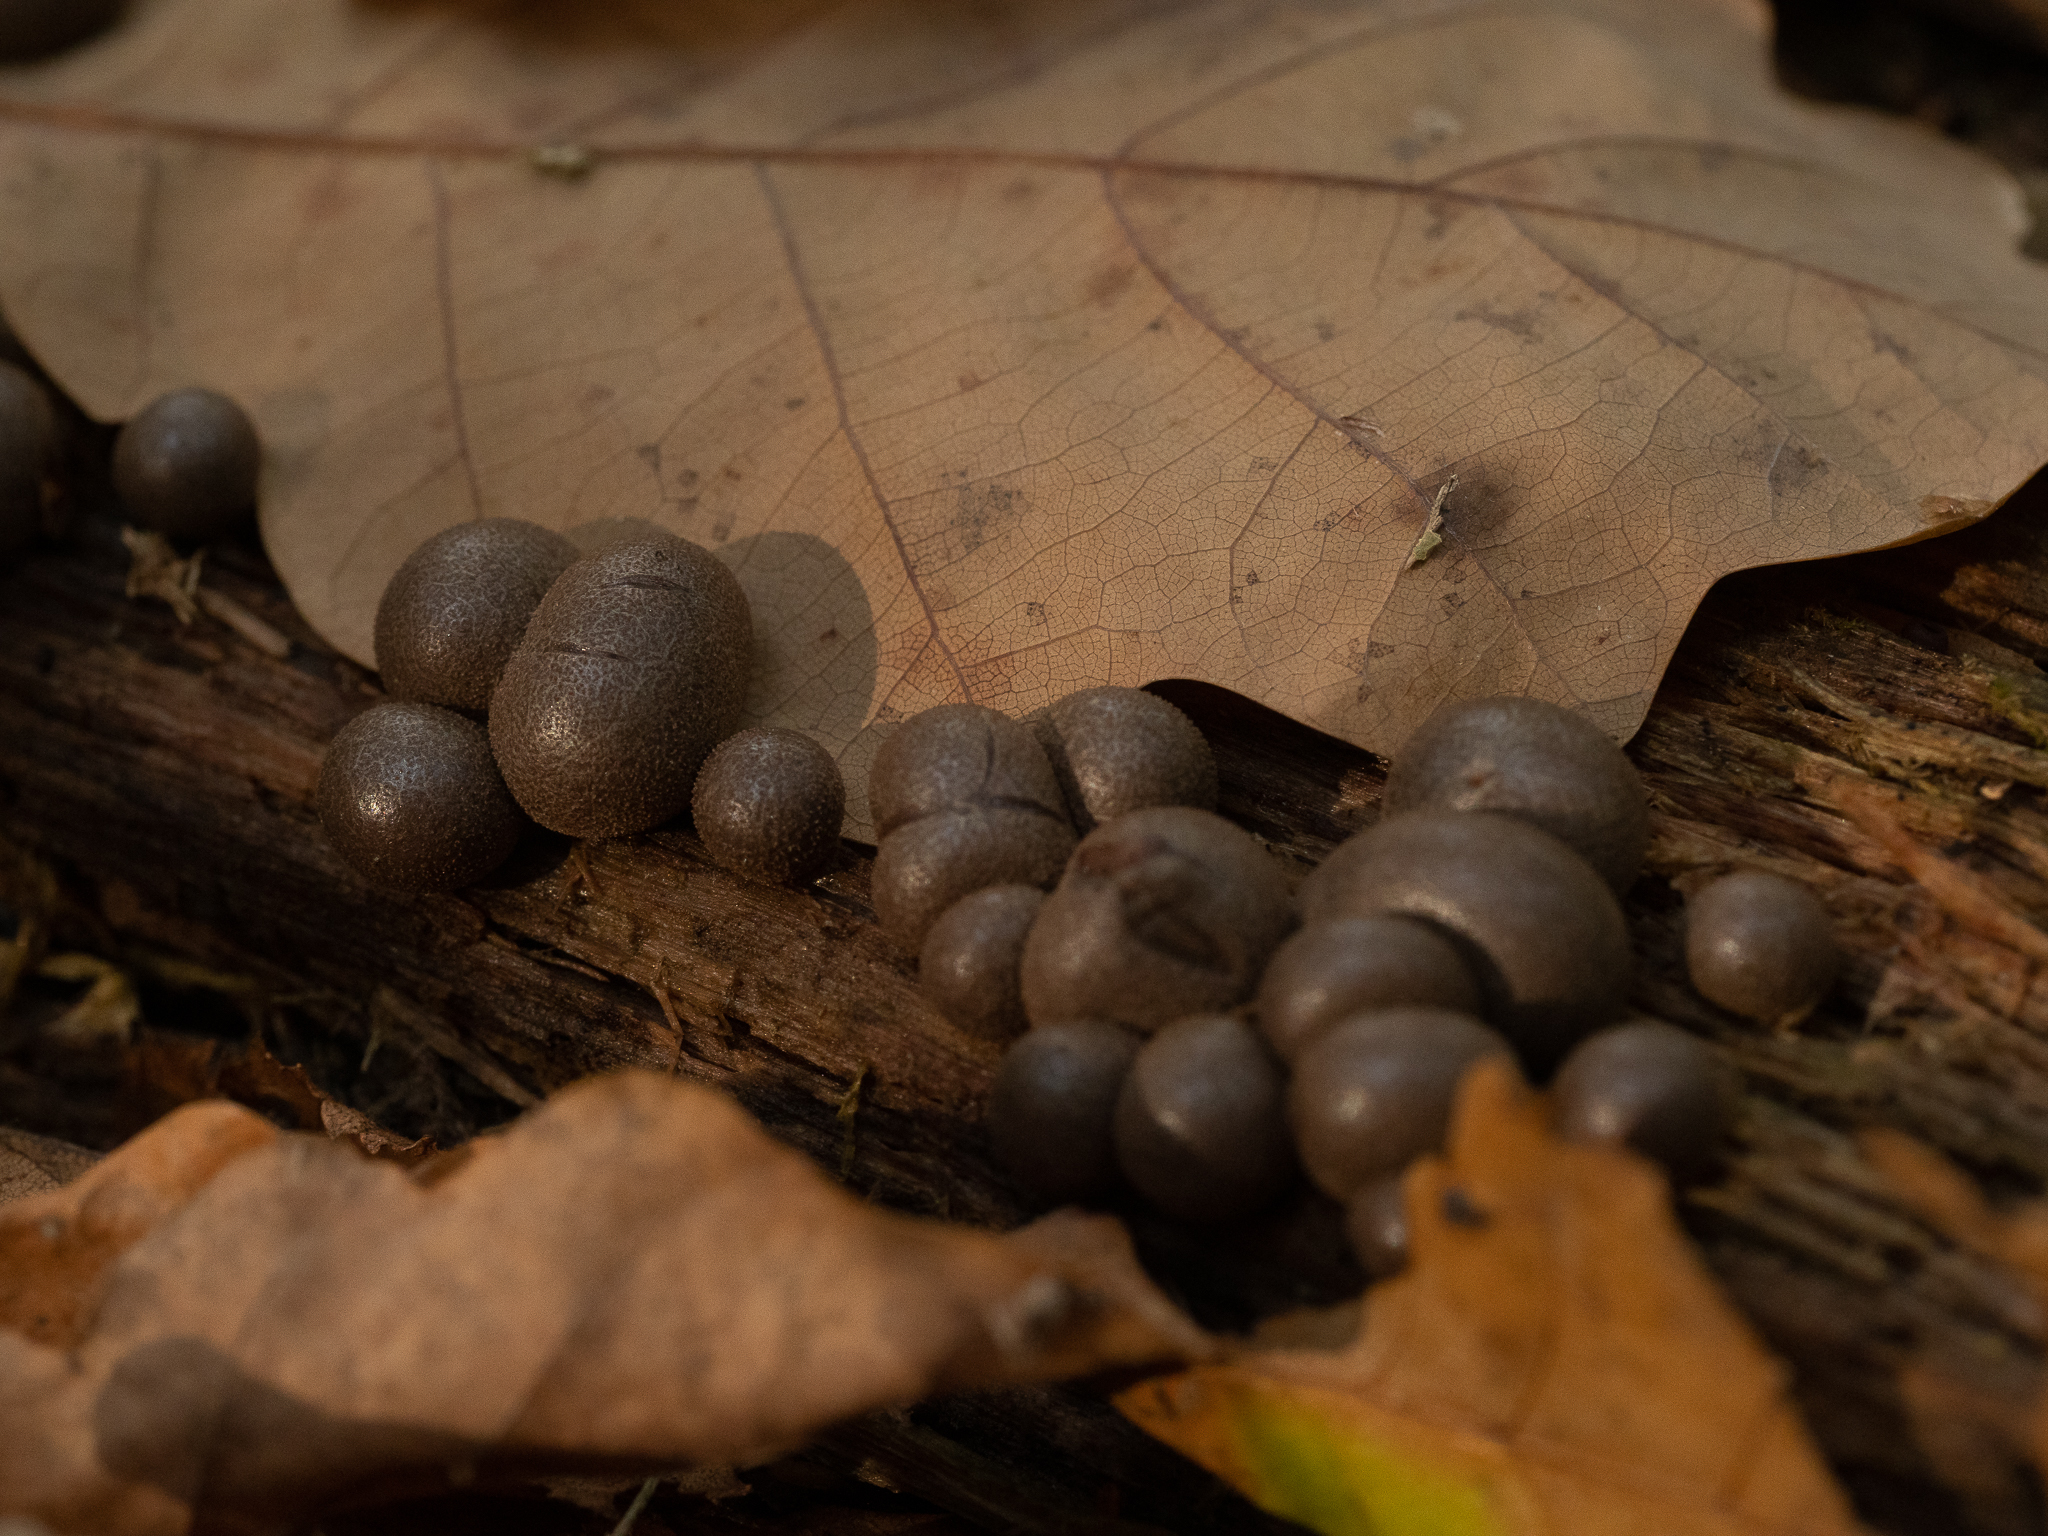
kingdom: Protozoa
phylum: Mycetozoa
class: Myxomycetes
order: Cribrariales
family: Tubiferaceae
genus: Lycogala
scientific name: Lycogala epidendrum
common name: Wolf's milk
